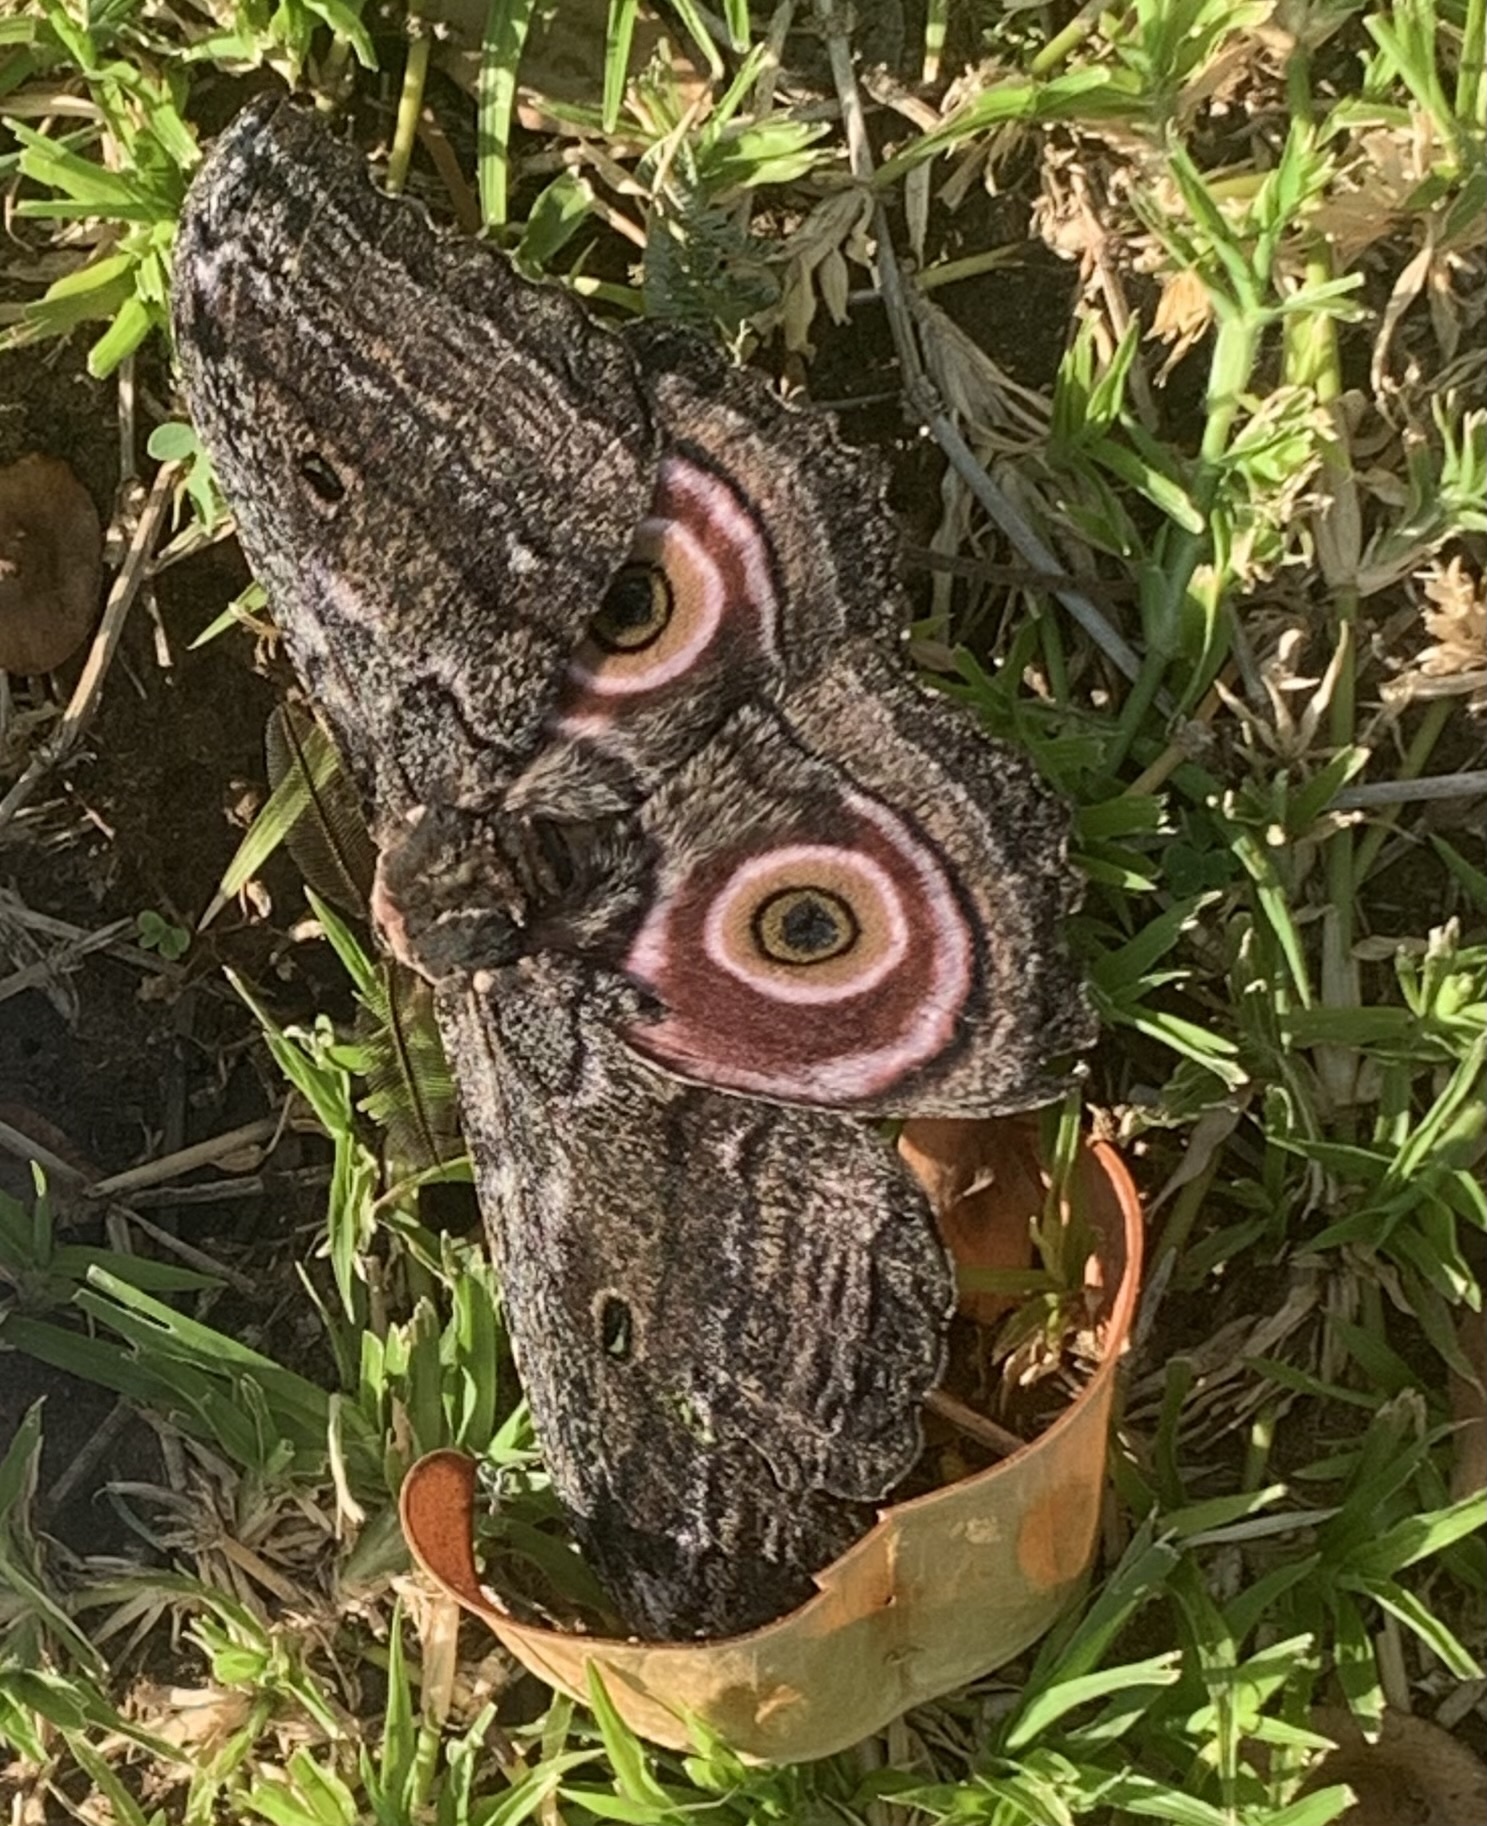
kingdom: Animalia
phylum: Arthropoda
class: Insecta
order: Lepidoptera
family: Saturniidae
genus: Gynanisa
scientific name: Gynanisa maja
